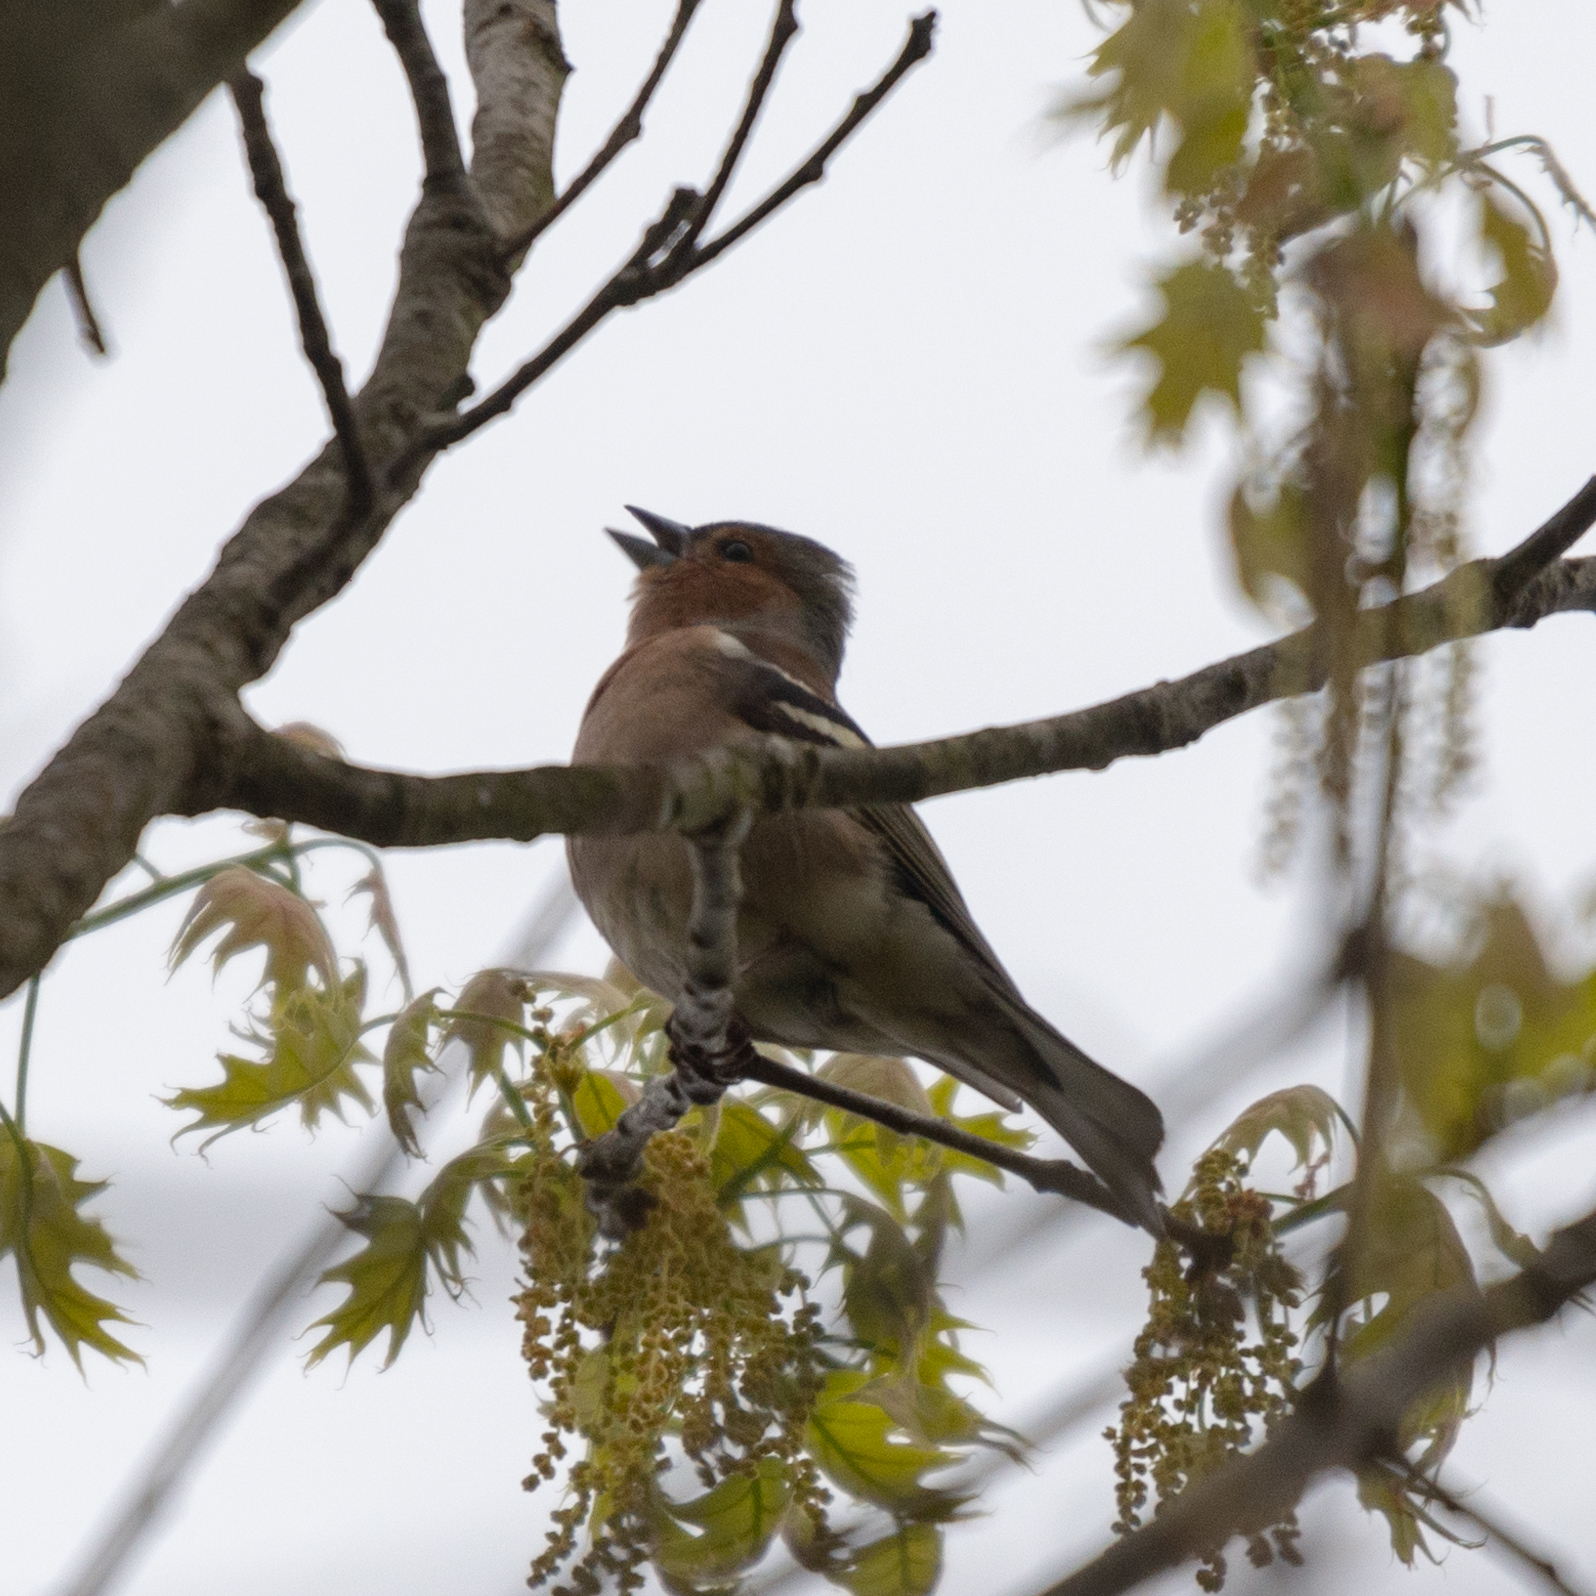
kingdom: Animalia
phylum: Chordata
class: Aves
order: Passeriformes
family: Fringillidae
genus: Fringilla
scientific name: Fringilla coelebs
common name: Common chaffinch
